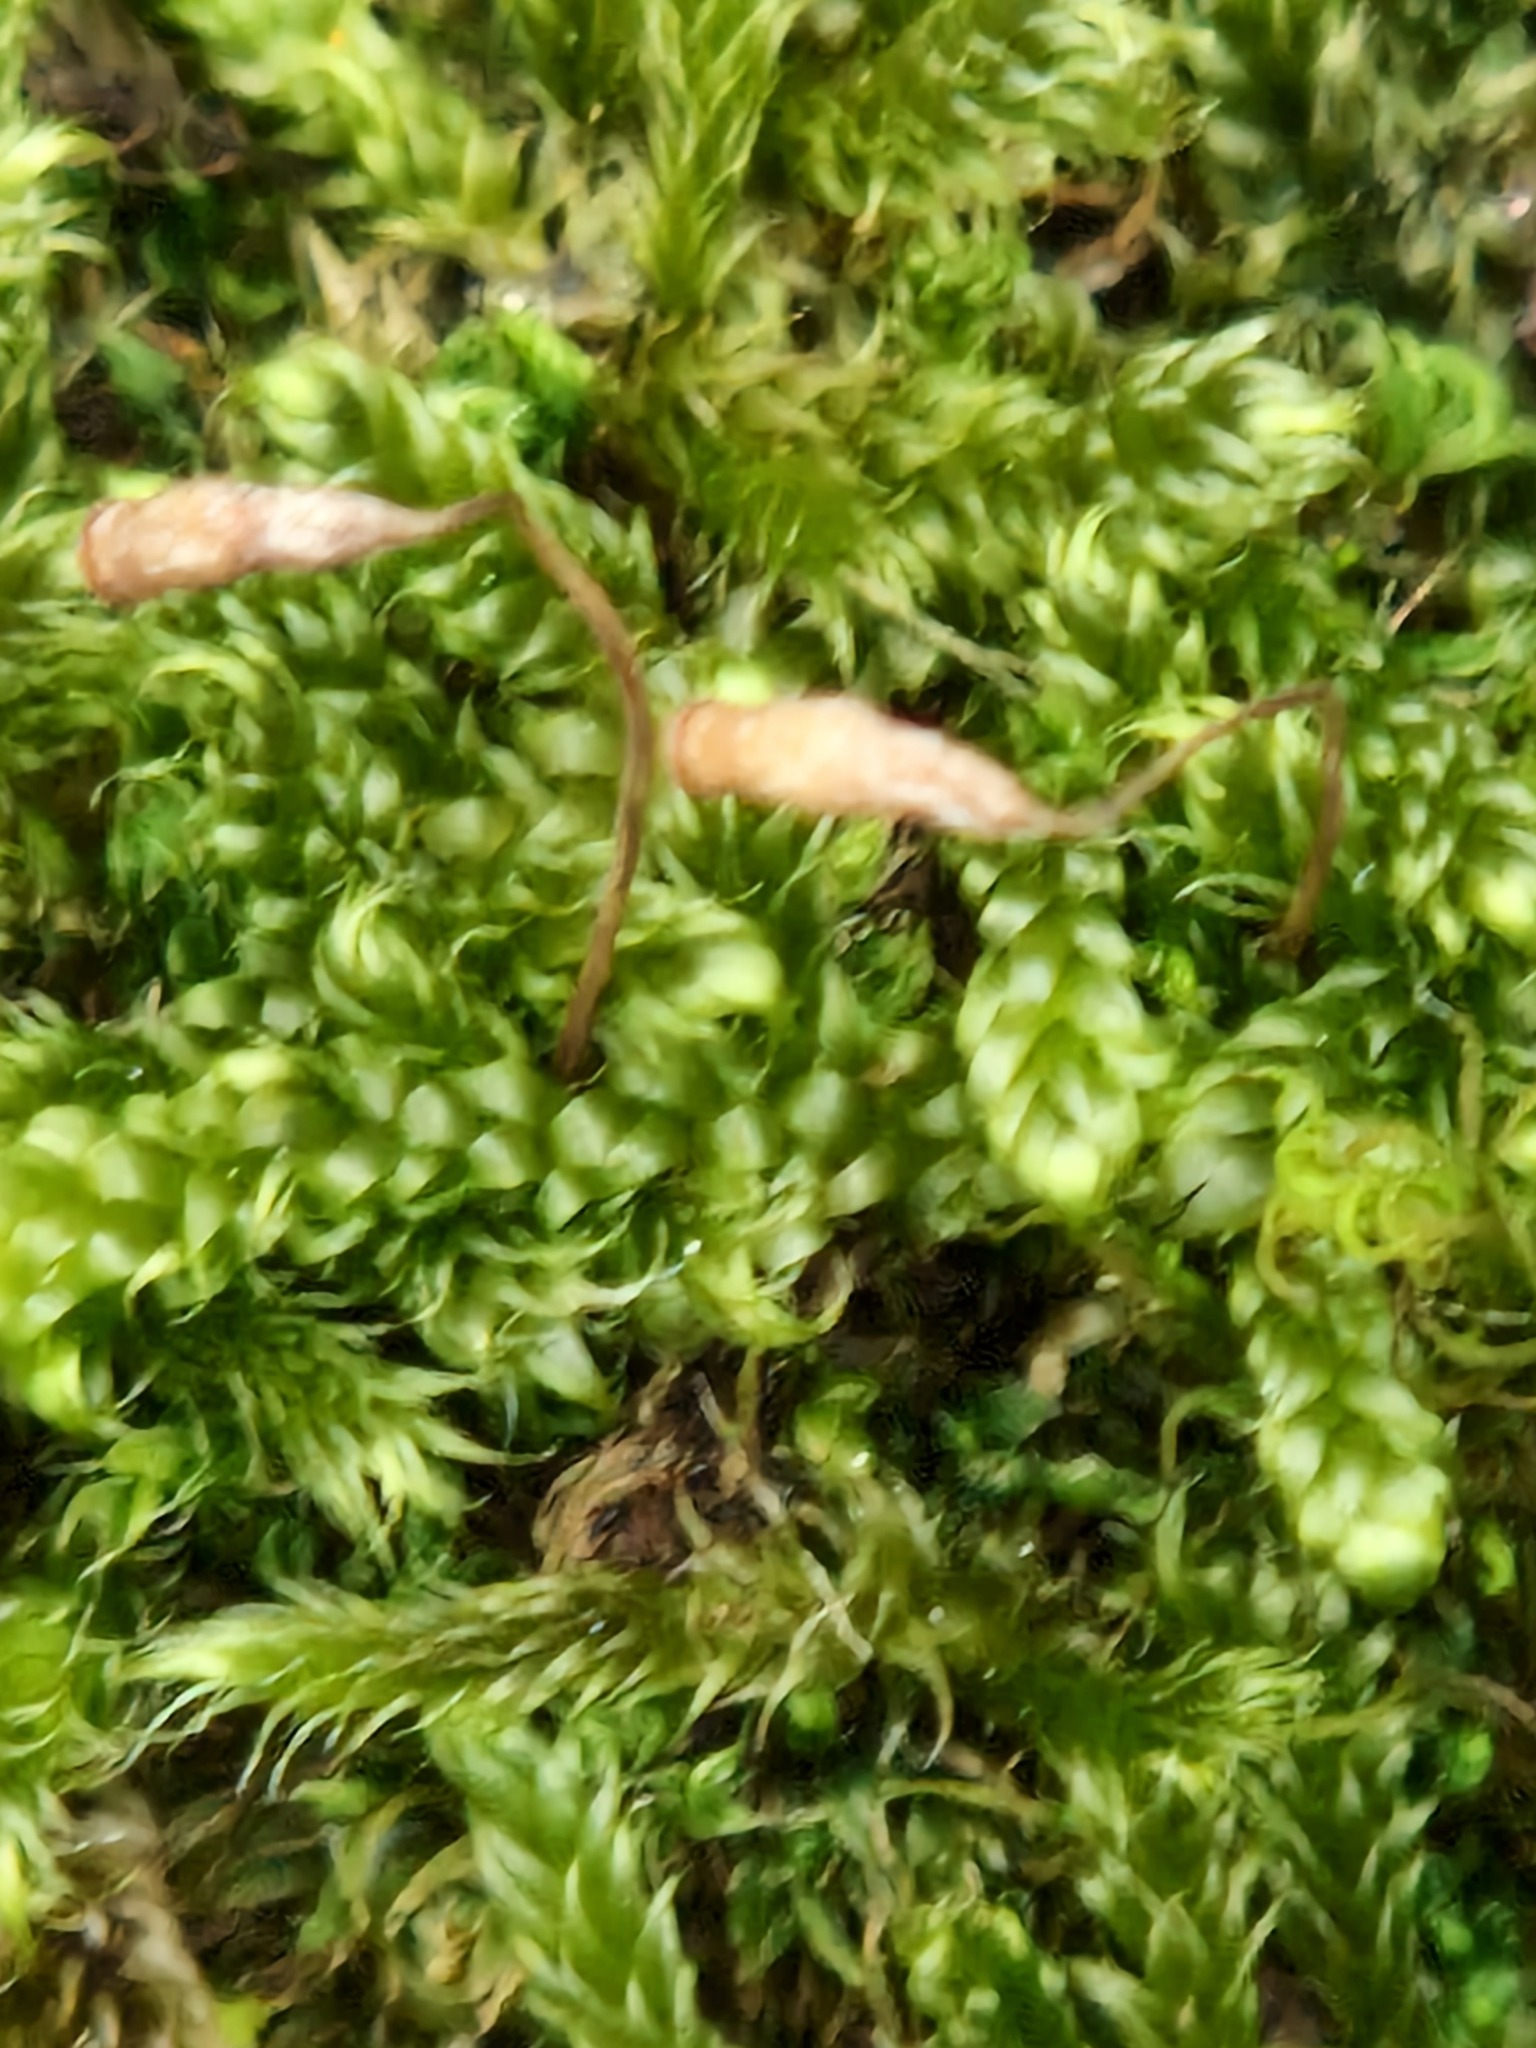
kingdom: Plantae
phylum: Bryophyta
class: Bryopsida
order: Hypnales
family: Hypnaceae
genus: Hypnum
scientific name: Hypnum cupressiforme
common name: Cypress-leaved plait-moss
